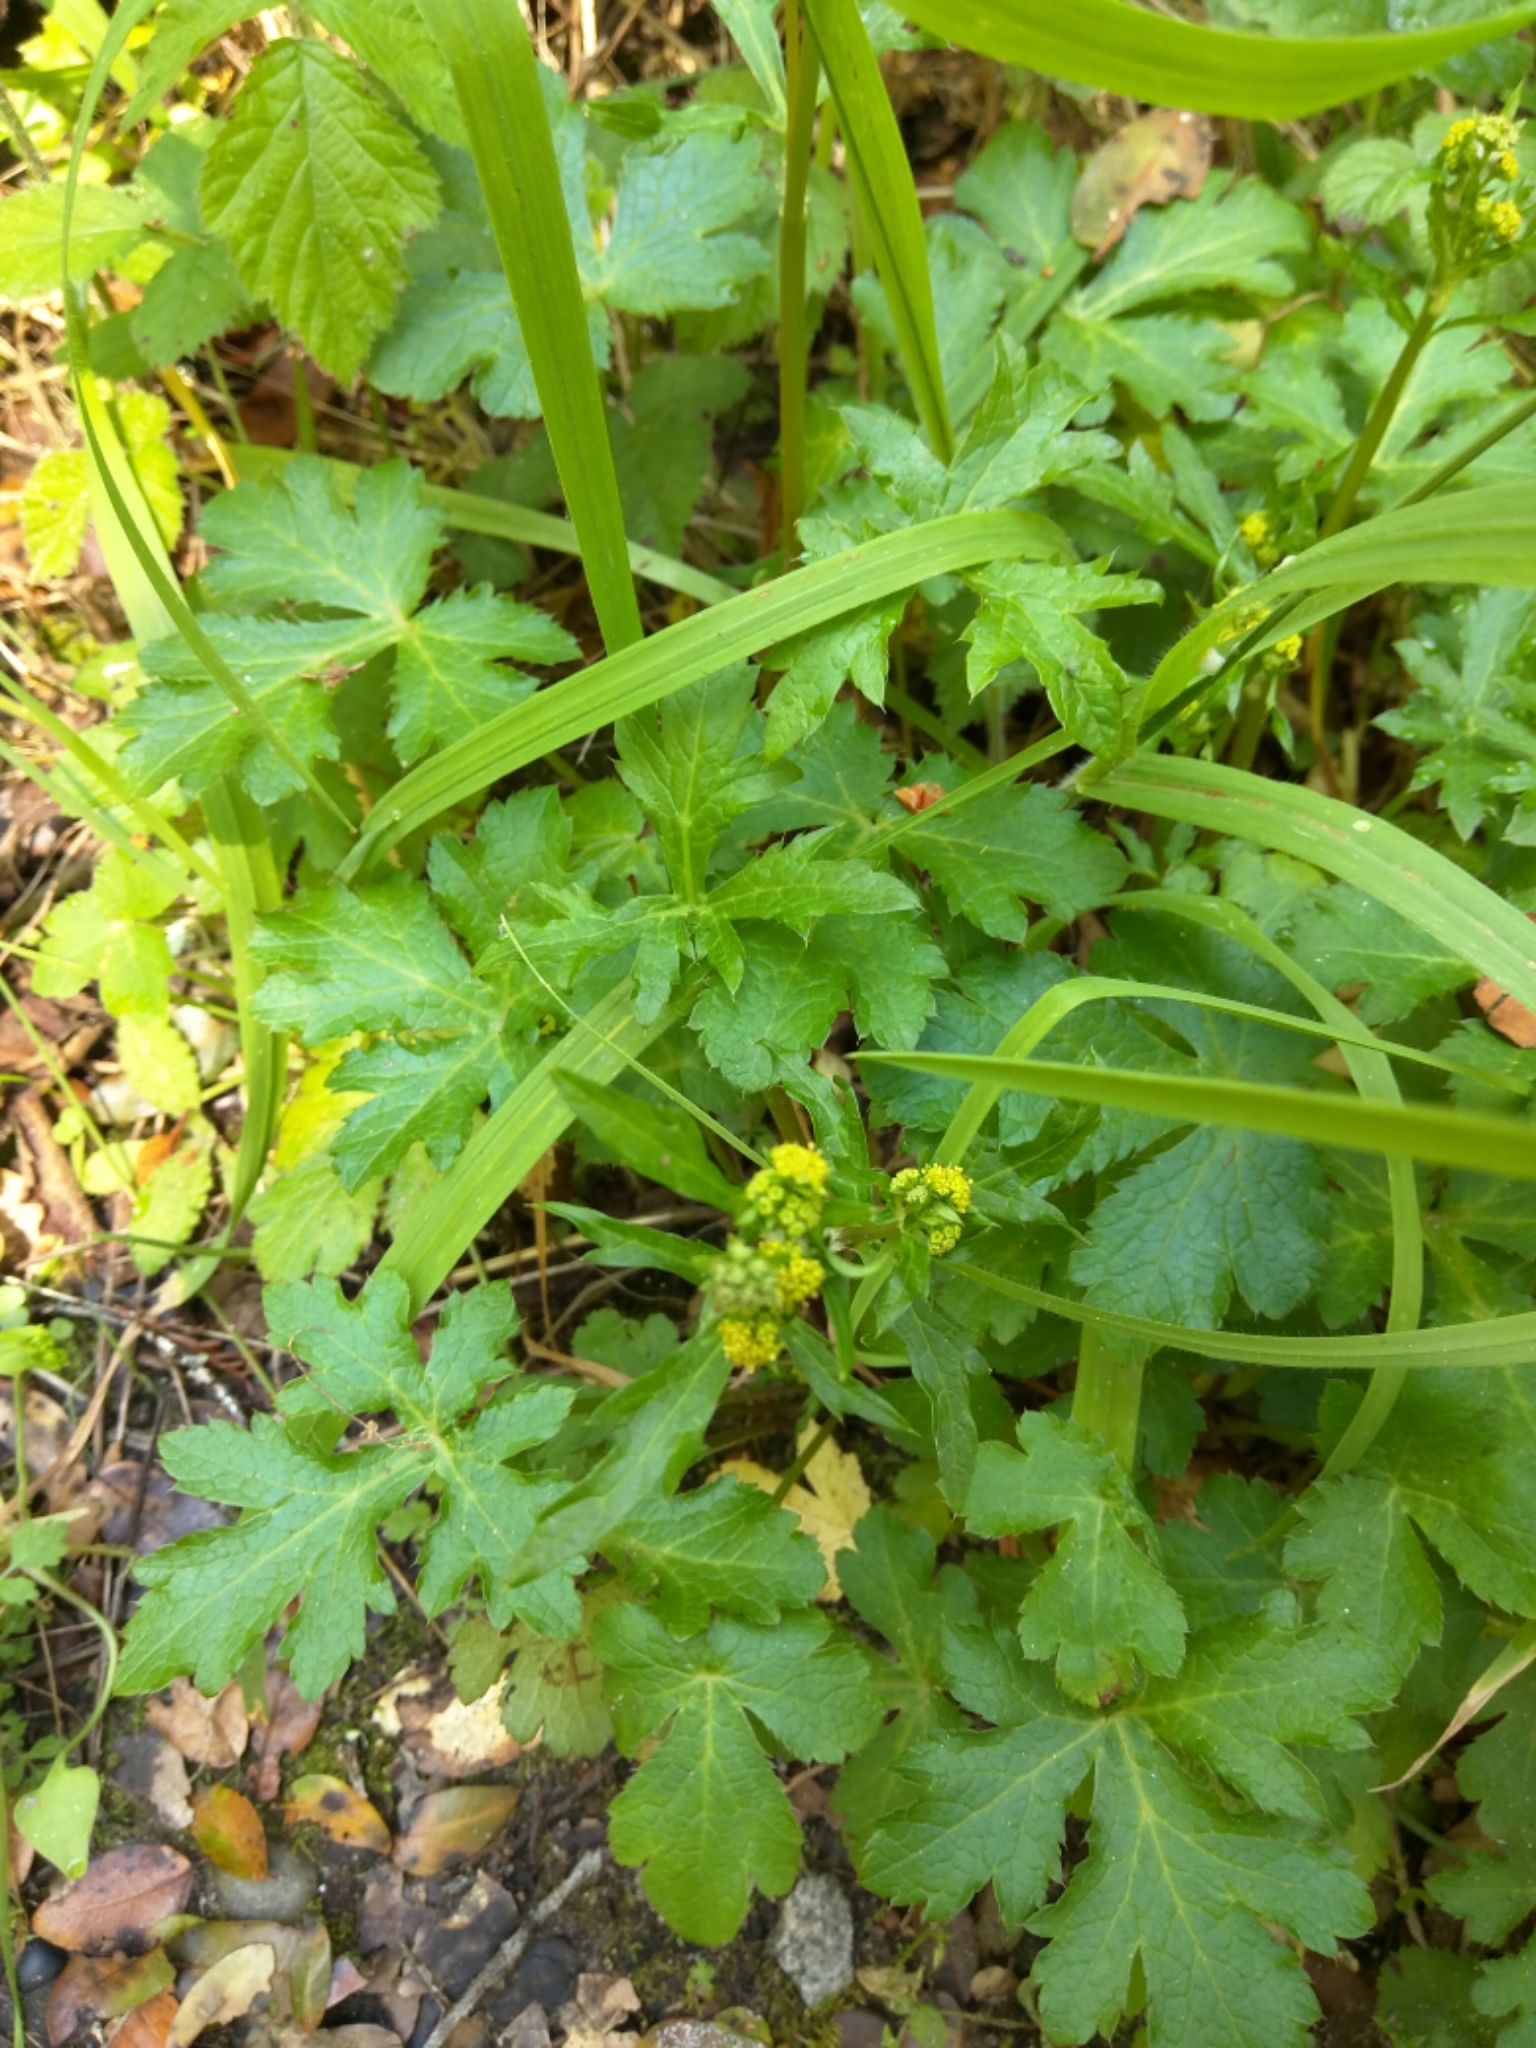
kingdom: Plantae
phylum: Tracheophyta
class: Magnoliopsida
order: Apiales
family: Apiaceae
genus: Sanicula
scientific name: Sanicula crassicaulis
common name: Western snakeroot
